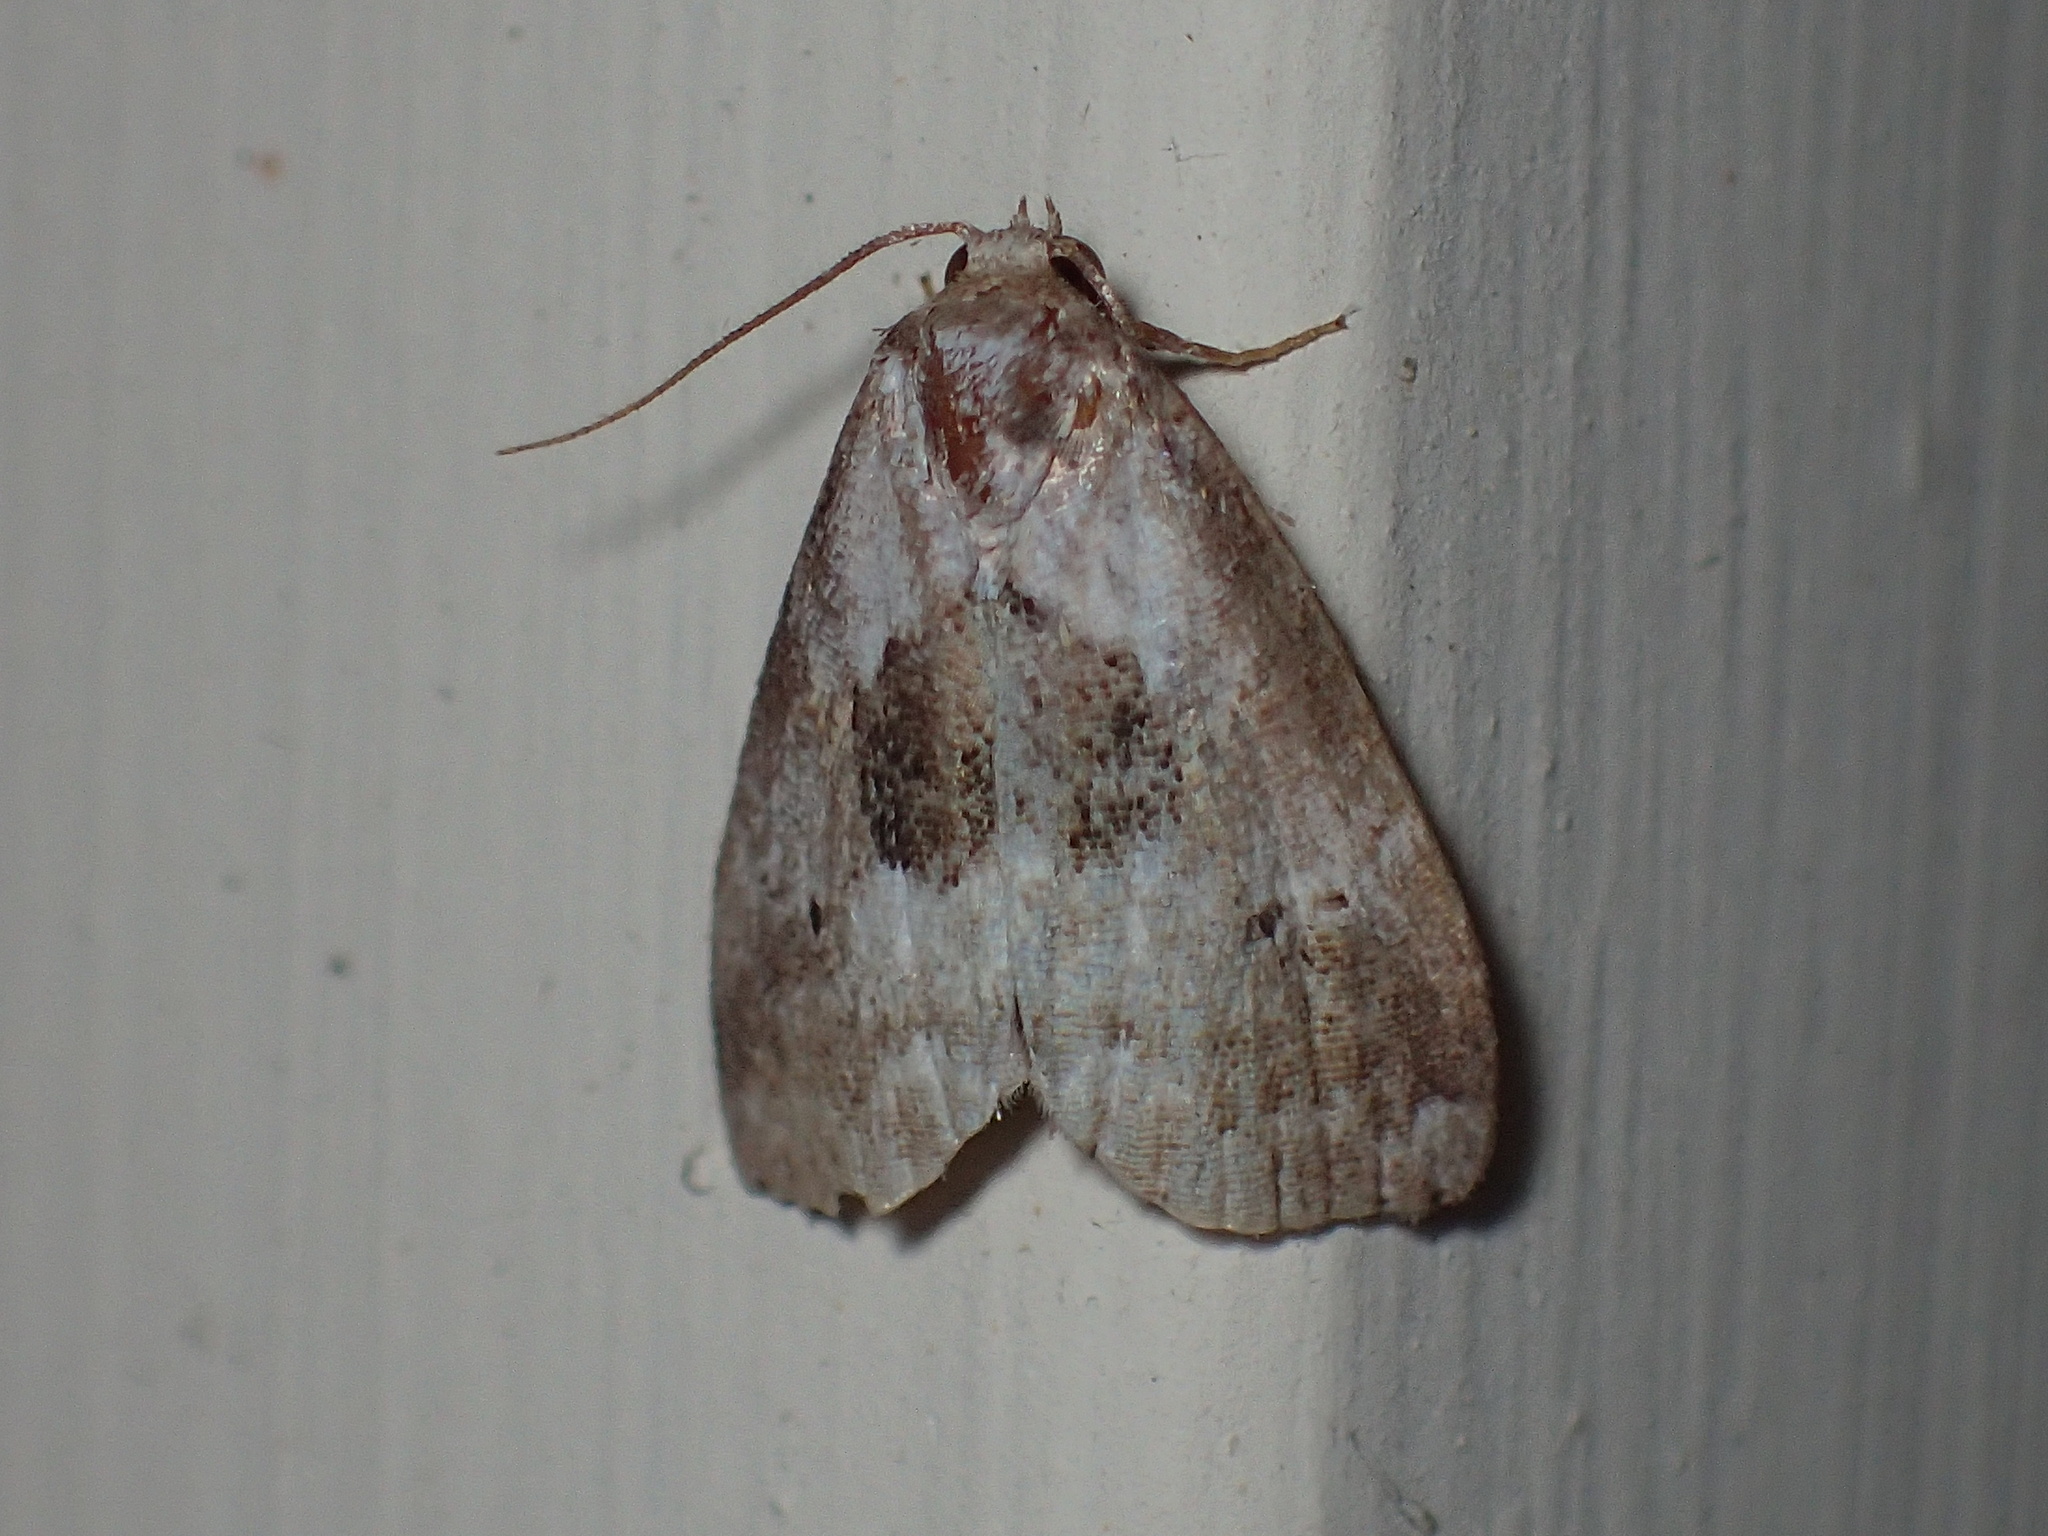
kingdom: Animalia
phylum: Arthropoda
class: Insecta
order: Lepidoptera
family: Erebidae
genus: Hyperstrotia
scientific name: Hyperstrotia secta
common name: Black-patched graylet
